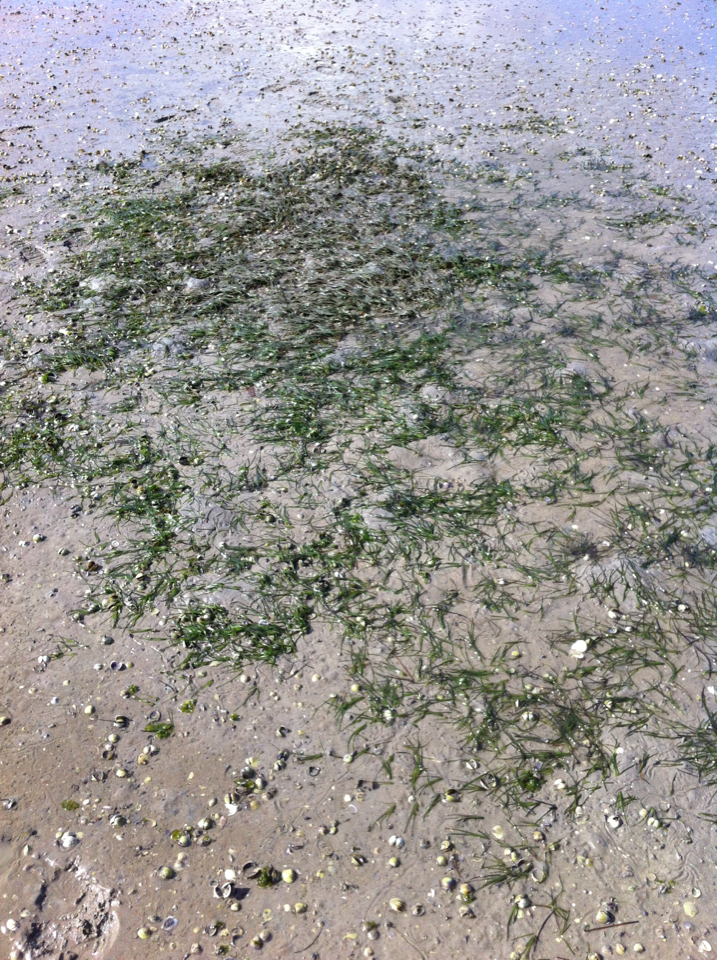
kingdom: Plantae
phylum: Tracheophyta
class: Liliopsida
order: Alismatales
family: Zosteraceae
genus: Zostera
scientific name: Zostera novazelandica
